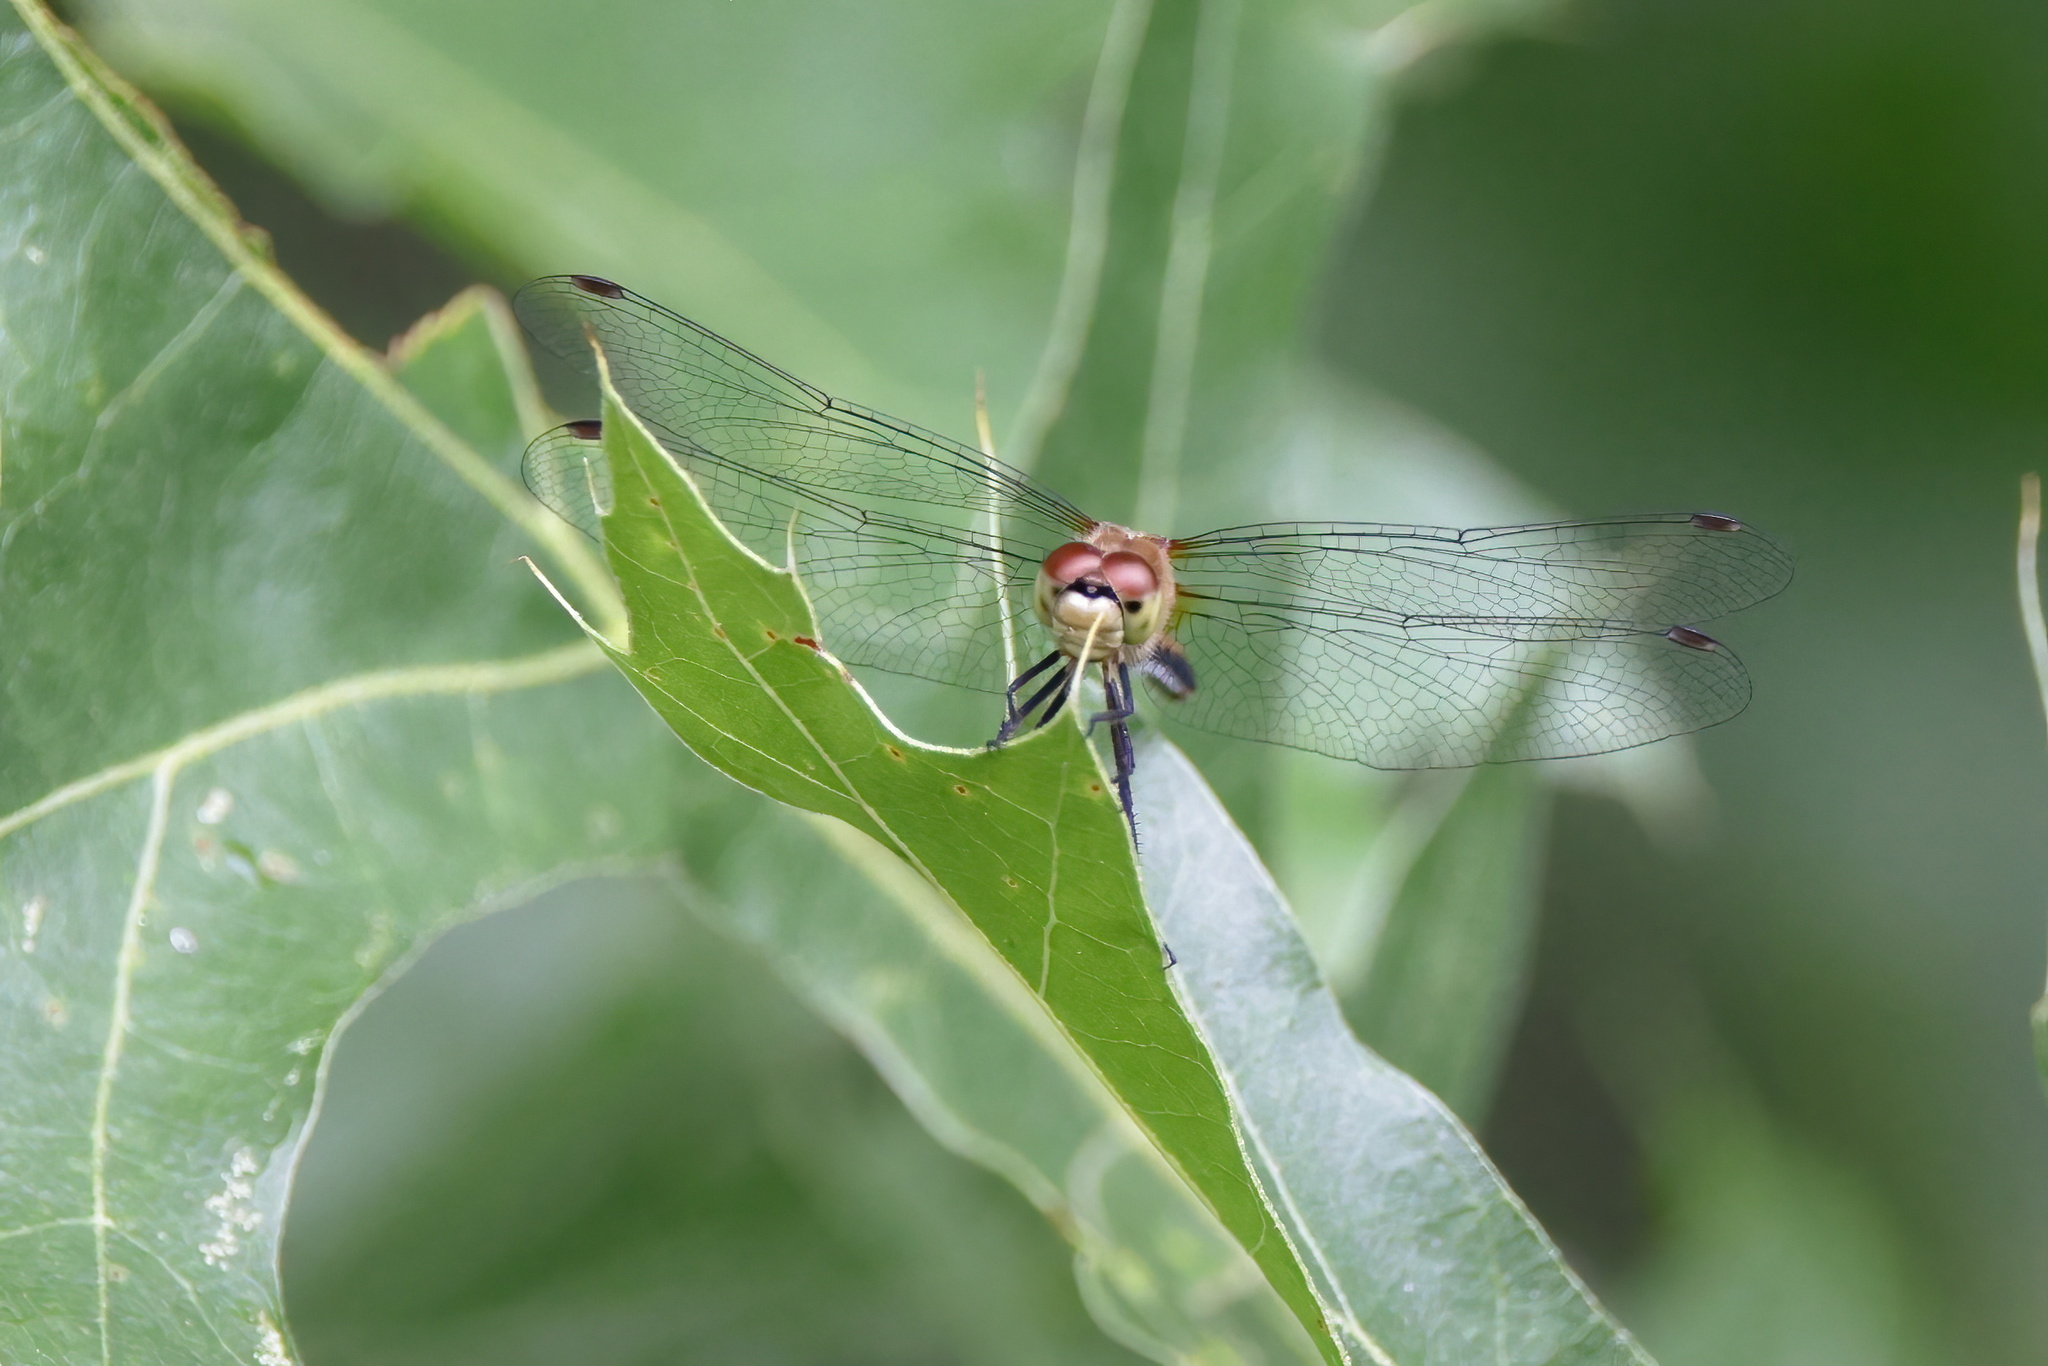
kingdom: Animalia
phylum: Arthropoda
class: Insecta
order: Odonata
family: Libellulidae
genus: Sympetrum
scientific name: Sympetrum obtrusum
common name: White-faced meadowhawk
